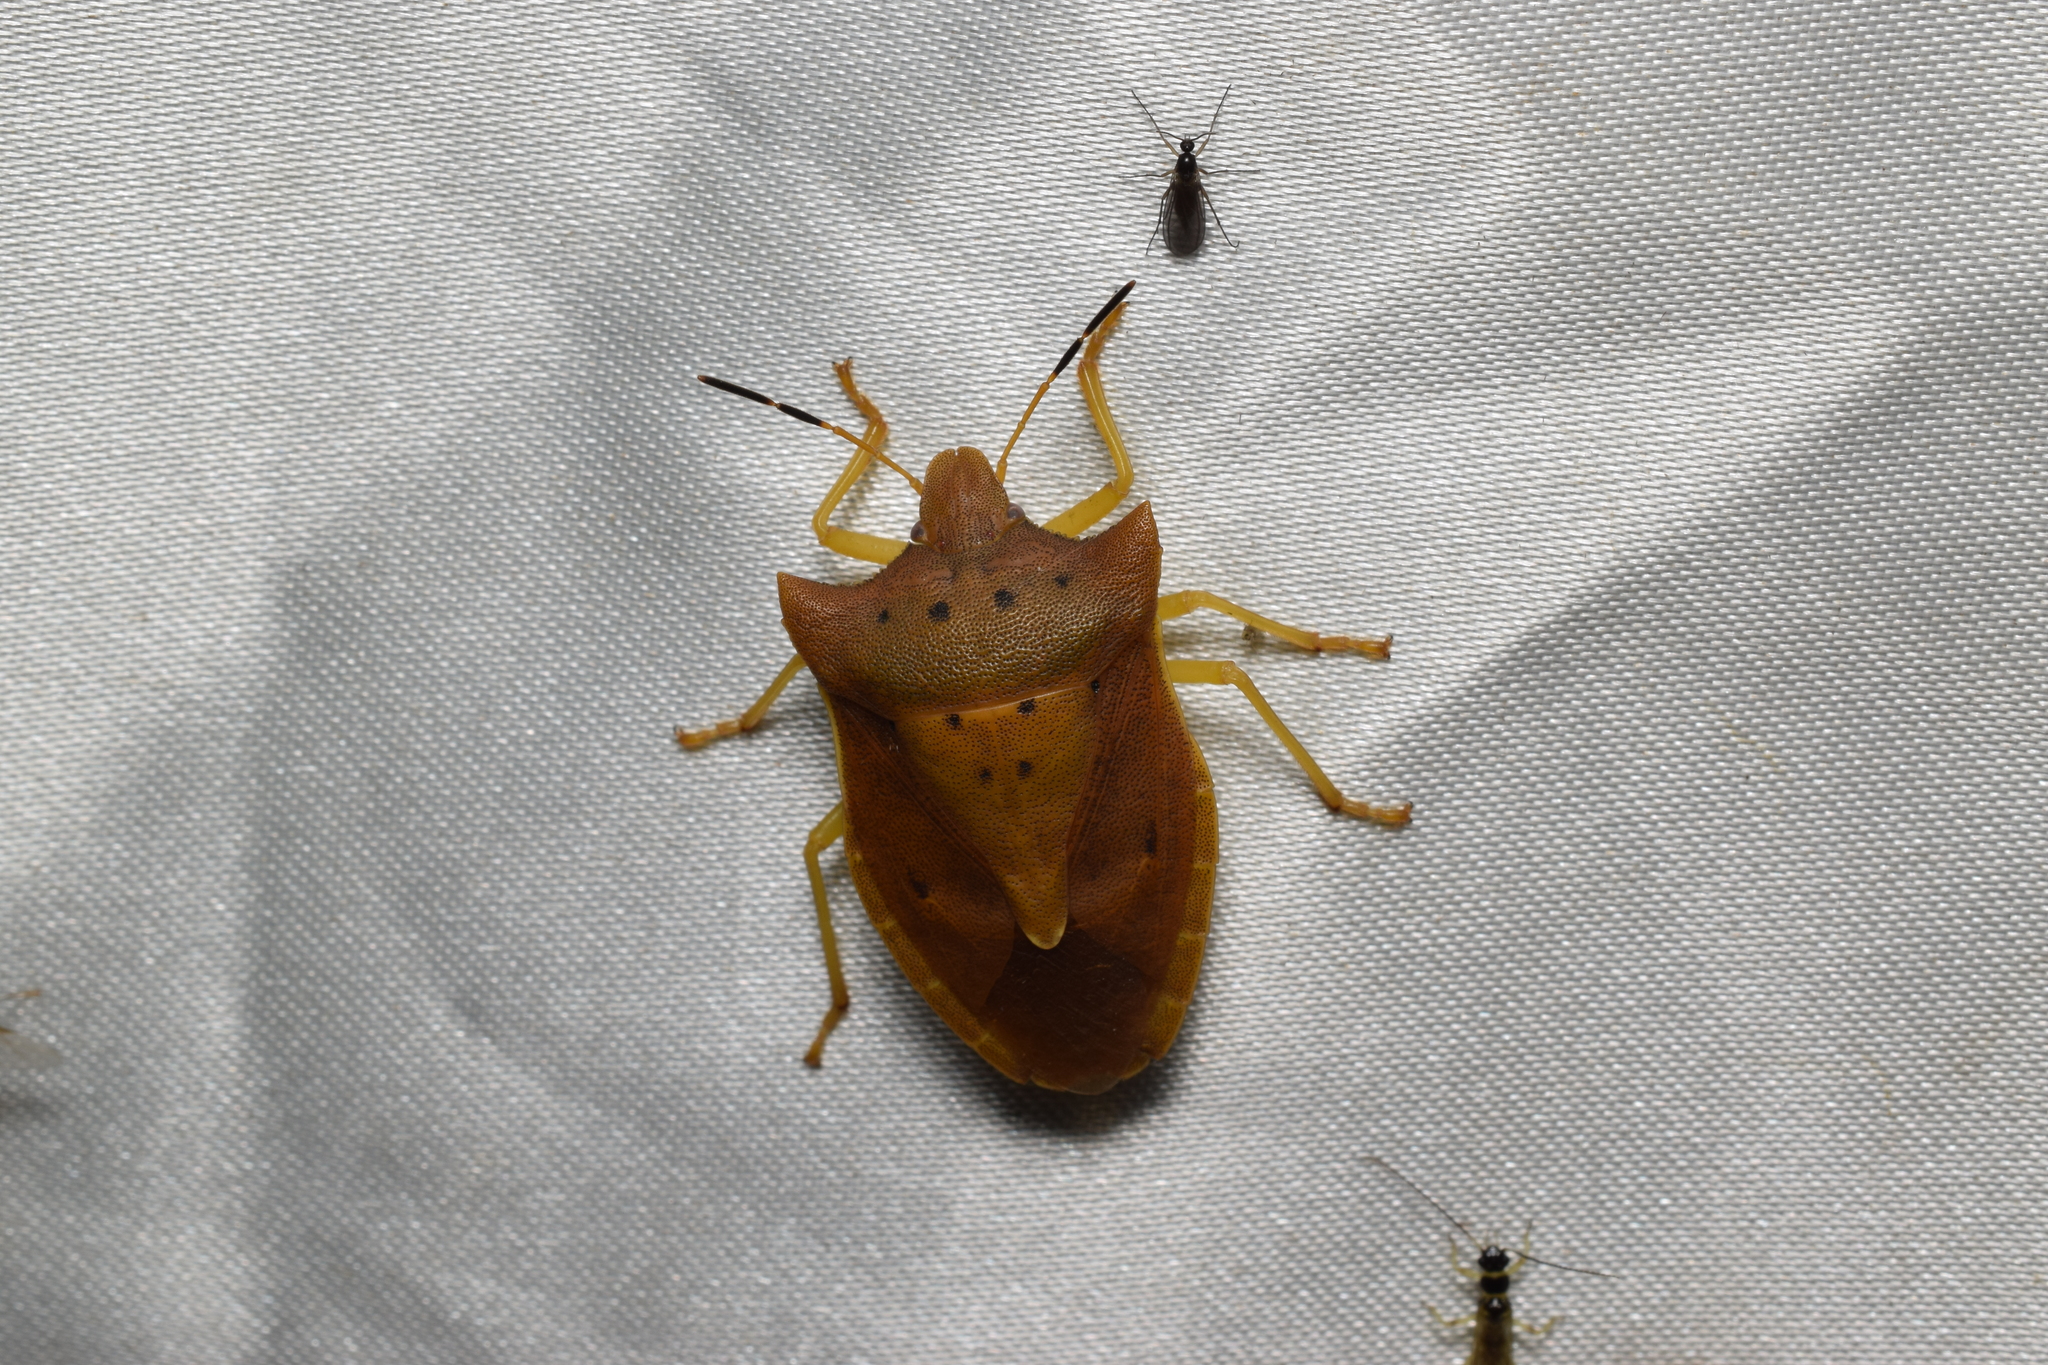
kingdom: Animalia
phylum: Arthropoda
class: Insecta
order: Hemiptera
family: Pentatomidae
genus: Lelia
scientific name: Lelia decempunctata
